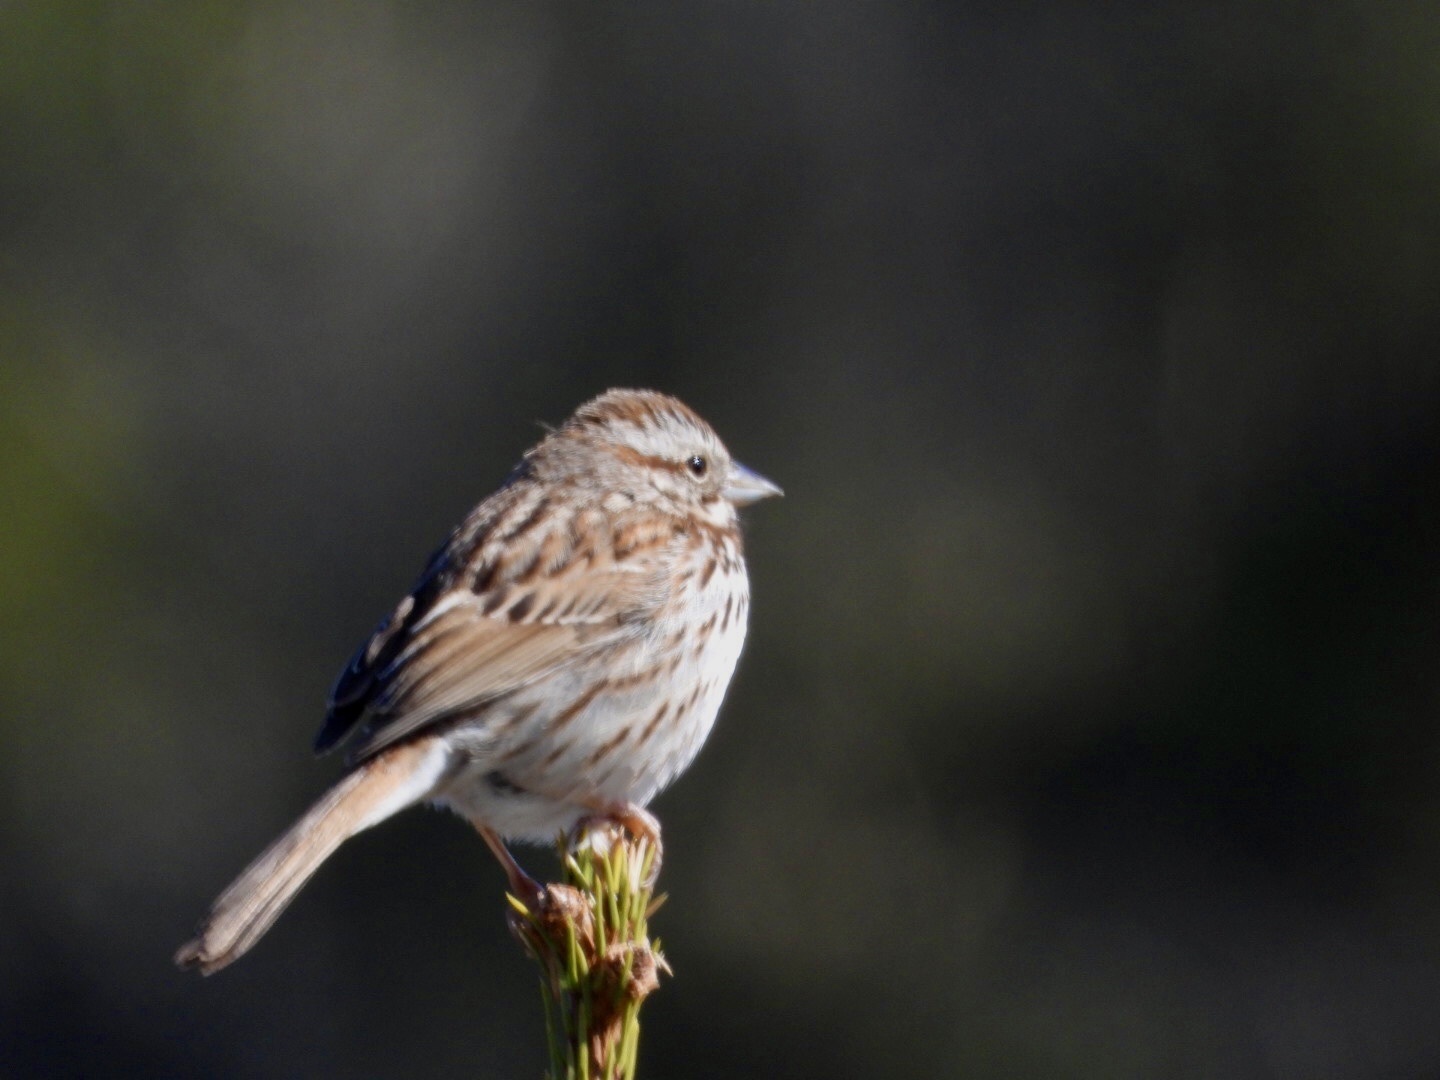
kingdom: Animalia
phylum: Chordata
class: Aves
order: Passeriformes
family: Passerellidae
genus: Melospiza
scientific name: Melospiza melodia
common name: Song sparrow
